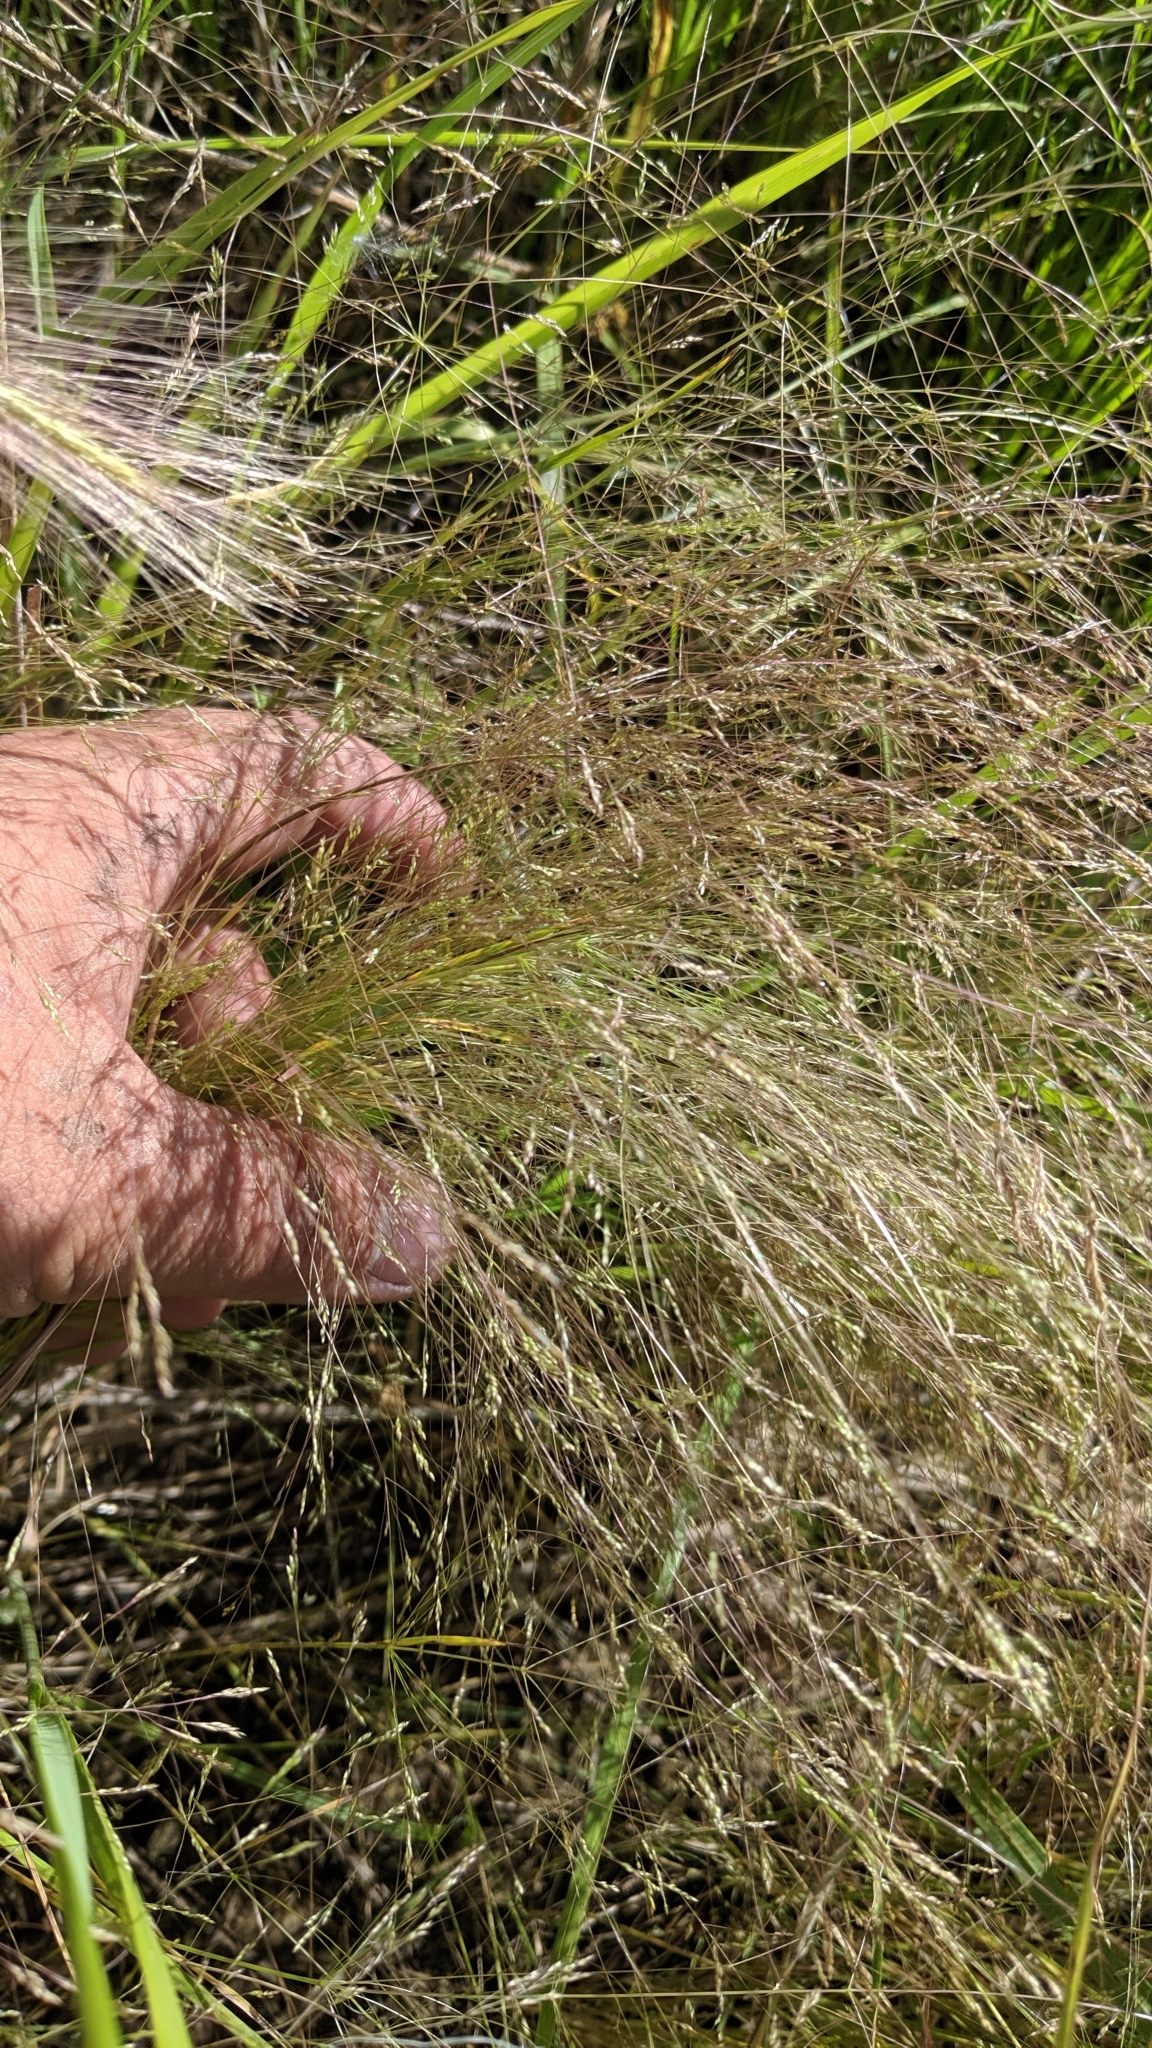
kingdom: Plantae
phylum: Tracheophyta
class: Liliopsida
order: Poales
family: Poaceae
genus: Agrostis
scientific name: Agrostis hyemalis
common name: Small bent
